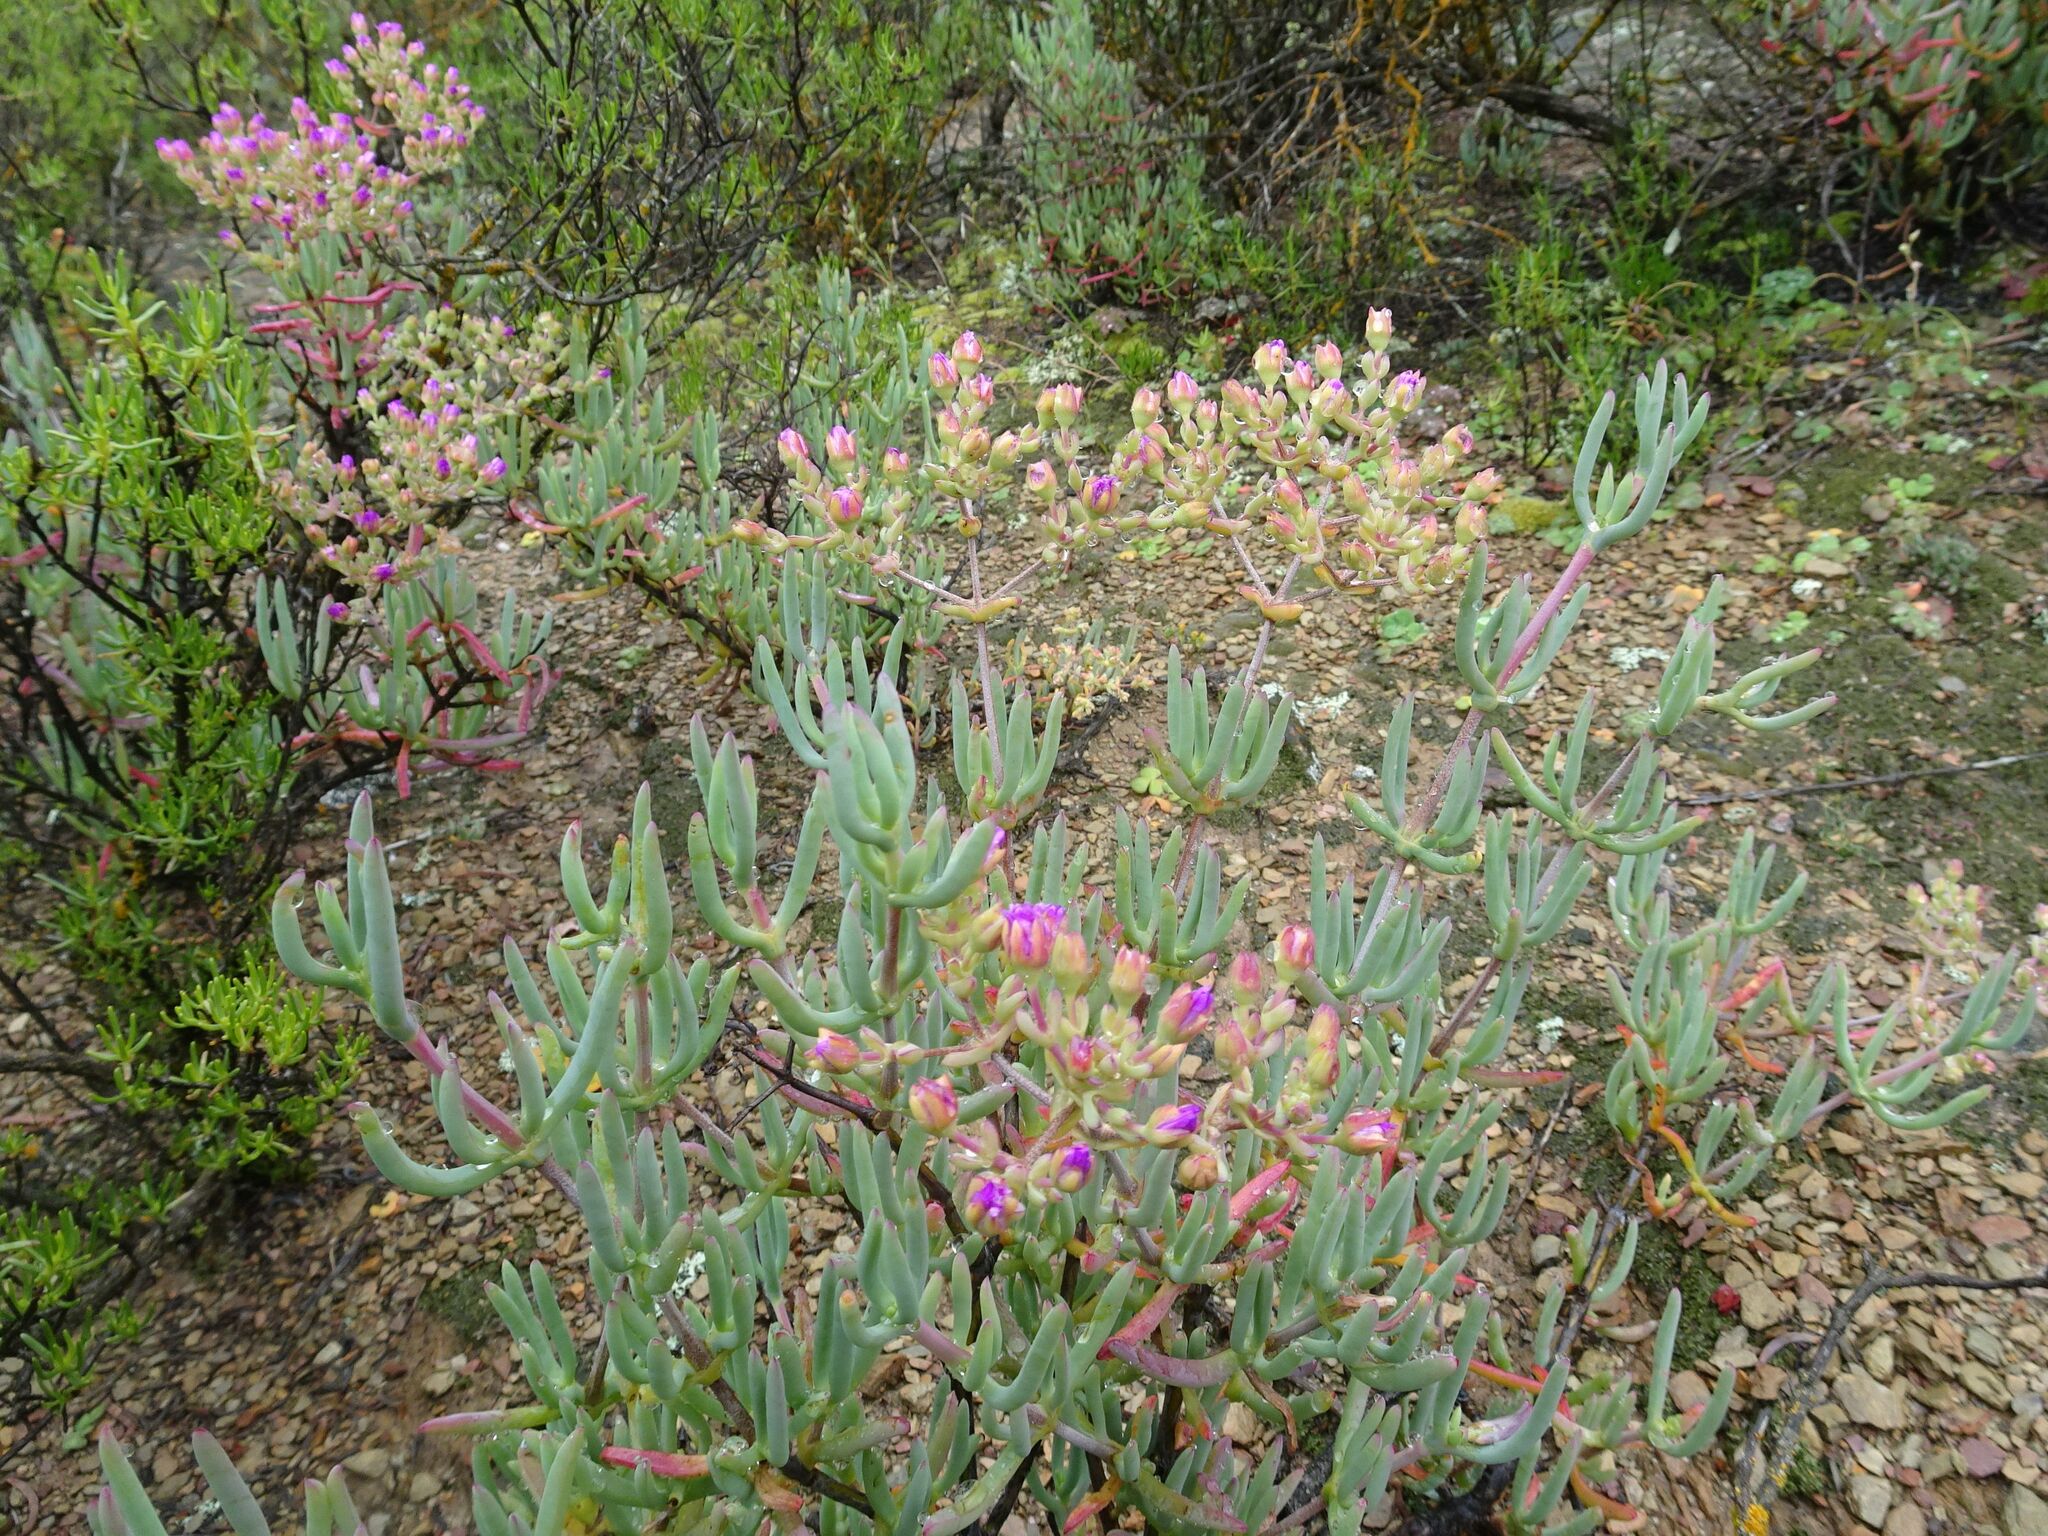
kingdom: Plantae
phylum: Tracheophyta
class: Magnoliopsida
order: Caryophyllales
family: Aizoaceae
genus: Ruschia
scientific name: Ruschia pungens
